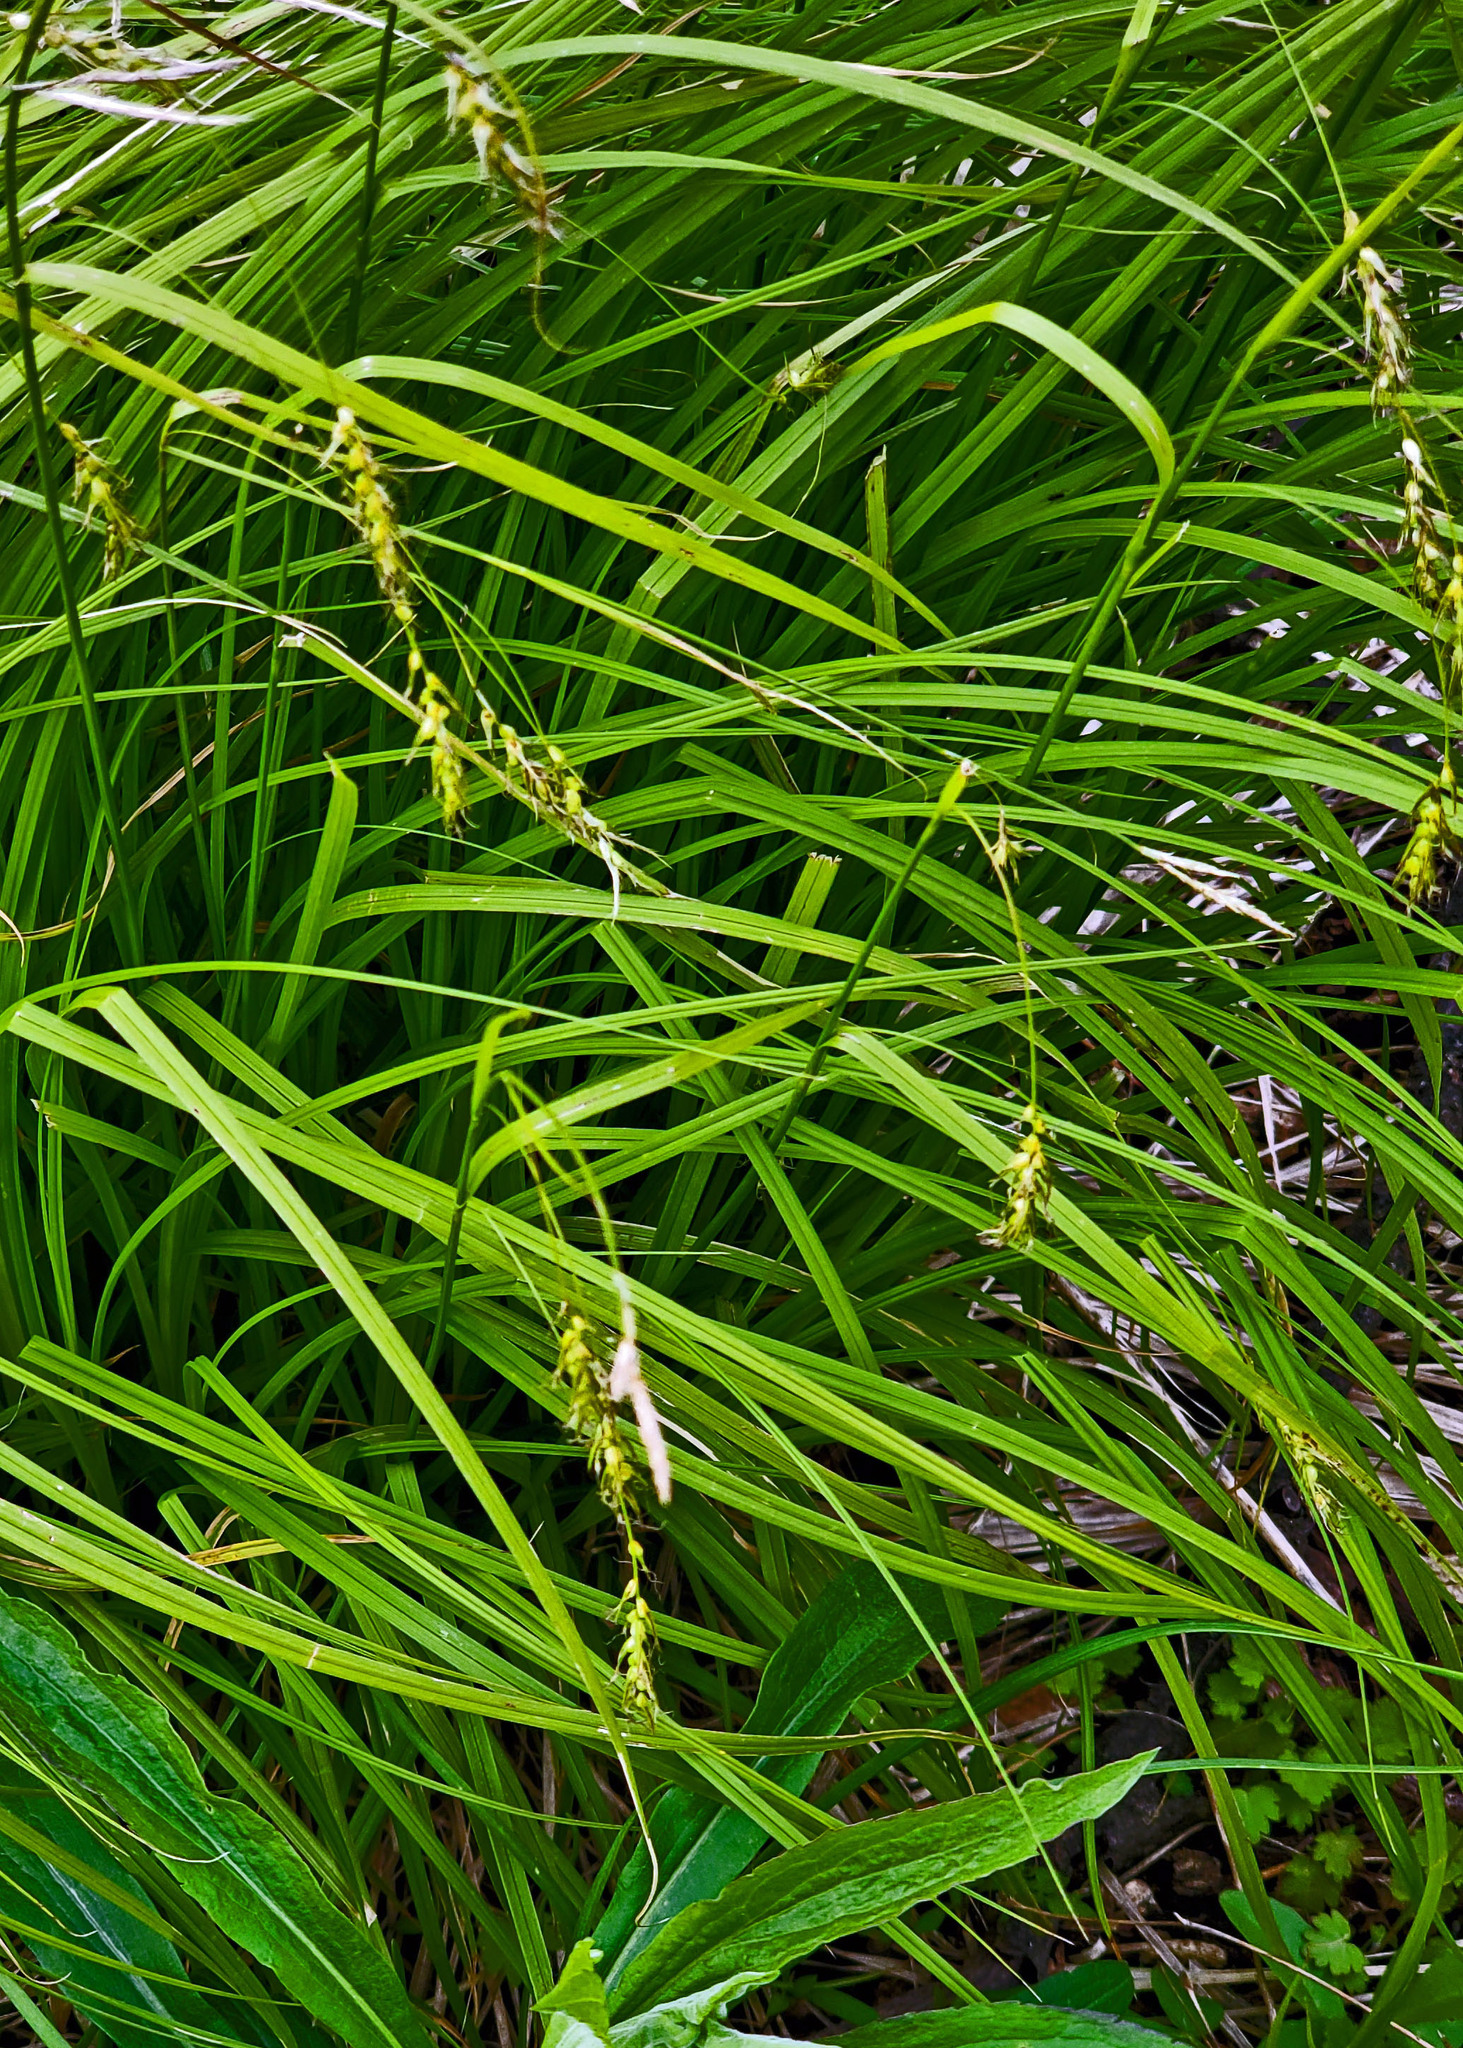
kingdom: Plantae
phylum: Tracheophyta
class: Liliopsida
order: Poales
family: Cyperaceae
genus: Carex
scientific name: Carex sprengelii
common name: Long-beaked sedge
